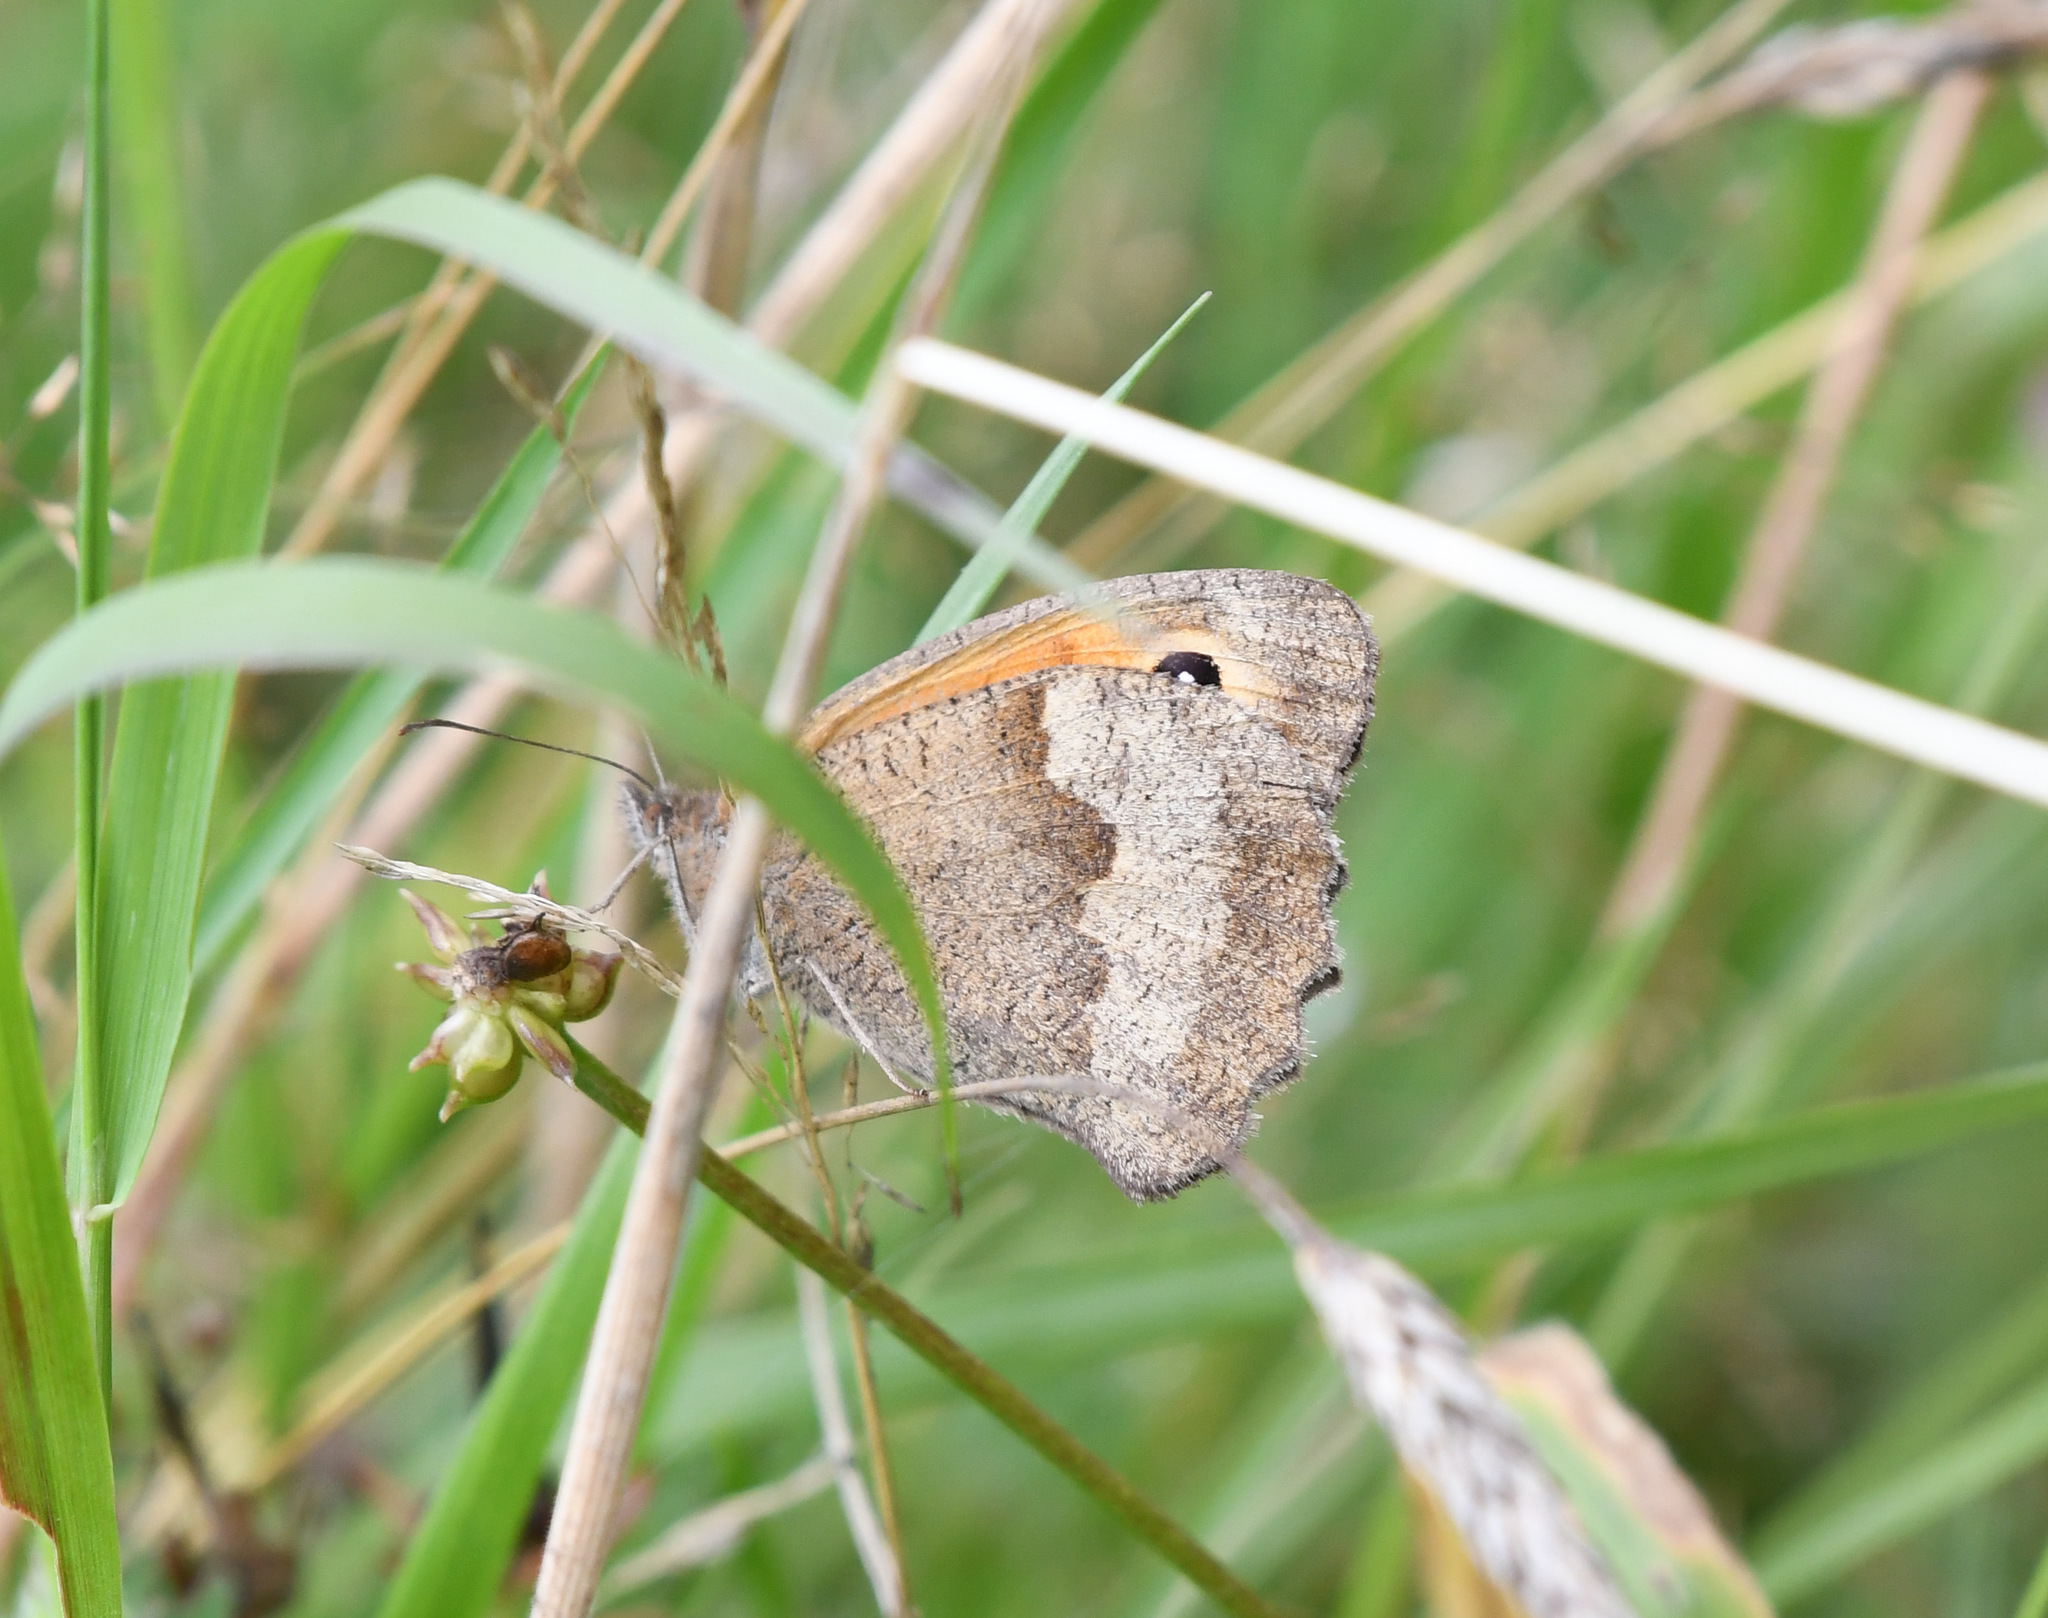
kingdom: Animalia
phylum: Arthropoda
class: Insecta
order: Lepidoptera
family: Nymphalidae
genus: Maniola
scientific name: Maniola jurtina
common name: Meadow brown
